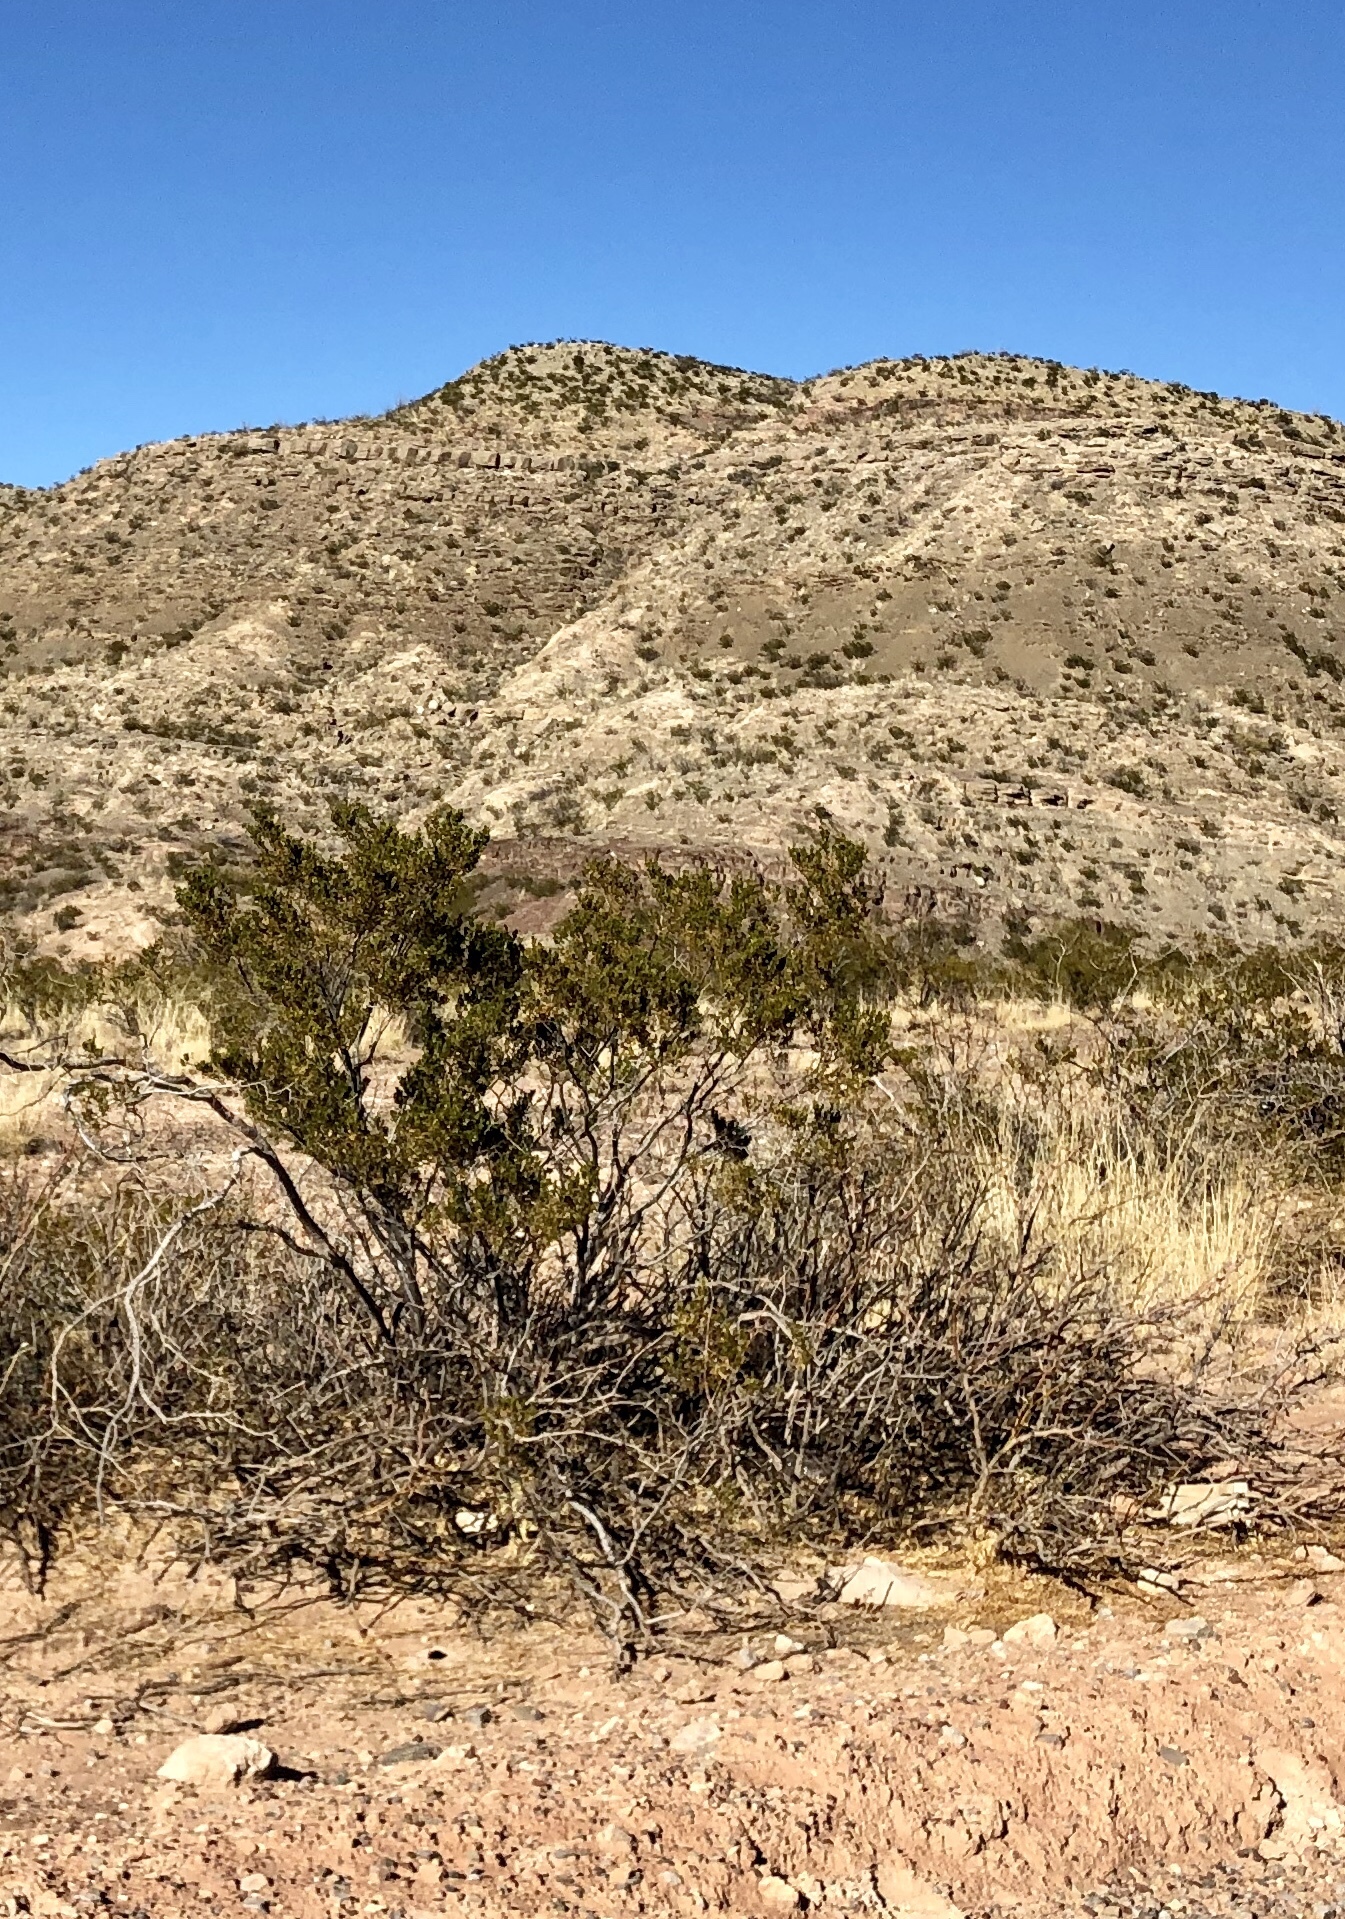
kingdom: Plantae
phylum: Tracheophyta
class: Magnoliopsida
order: Zygophyllales
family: Zygophyllaceae
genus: Larrea
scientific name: Larrea tridentata
